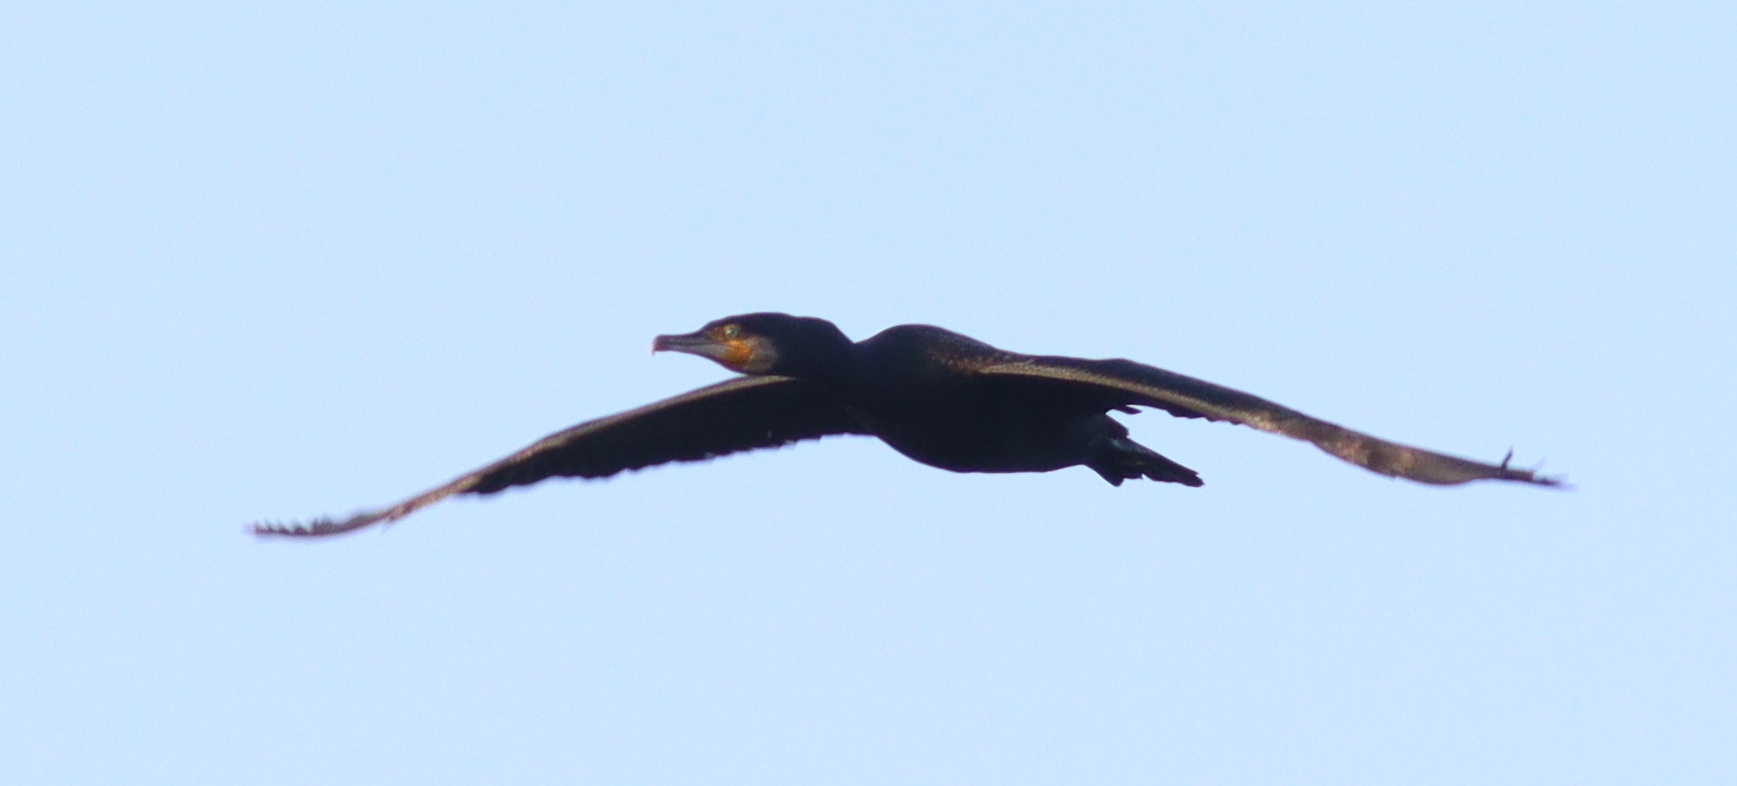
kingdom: Animalia
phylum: Chordata
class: Aves
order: Suliformes
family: Phalacrocoracidae
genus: Phalacrocorax
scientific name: Phalacrocorax carbo
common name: Great cormorant
